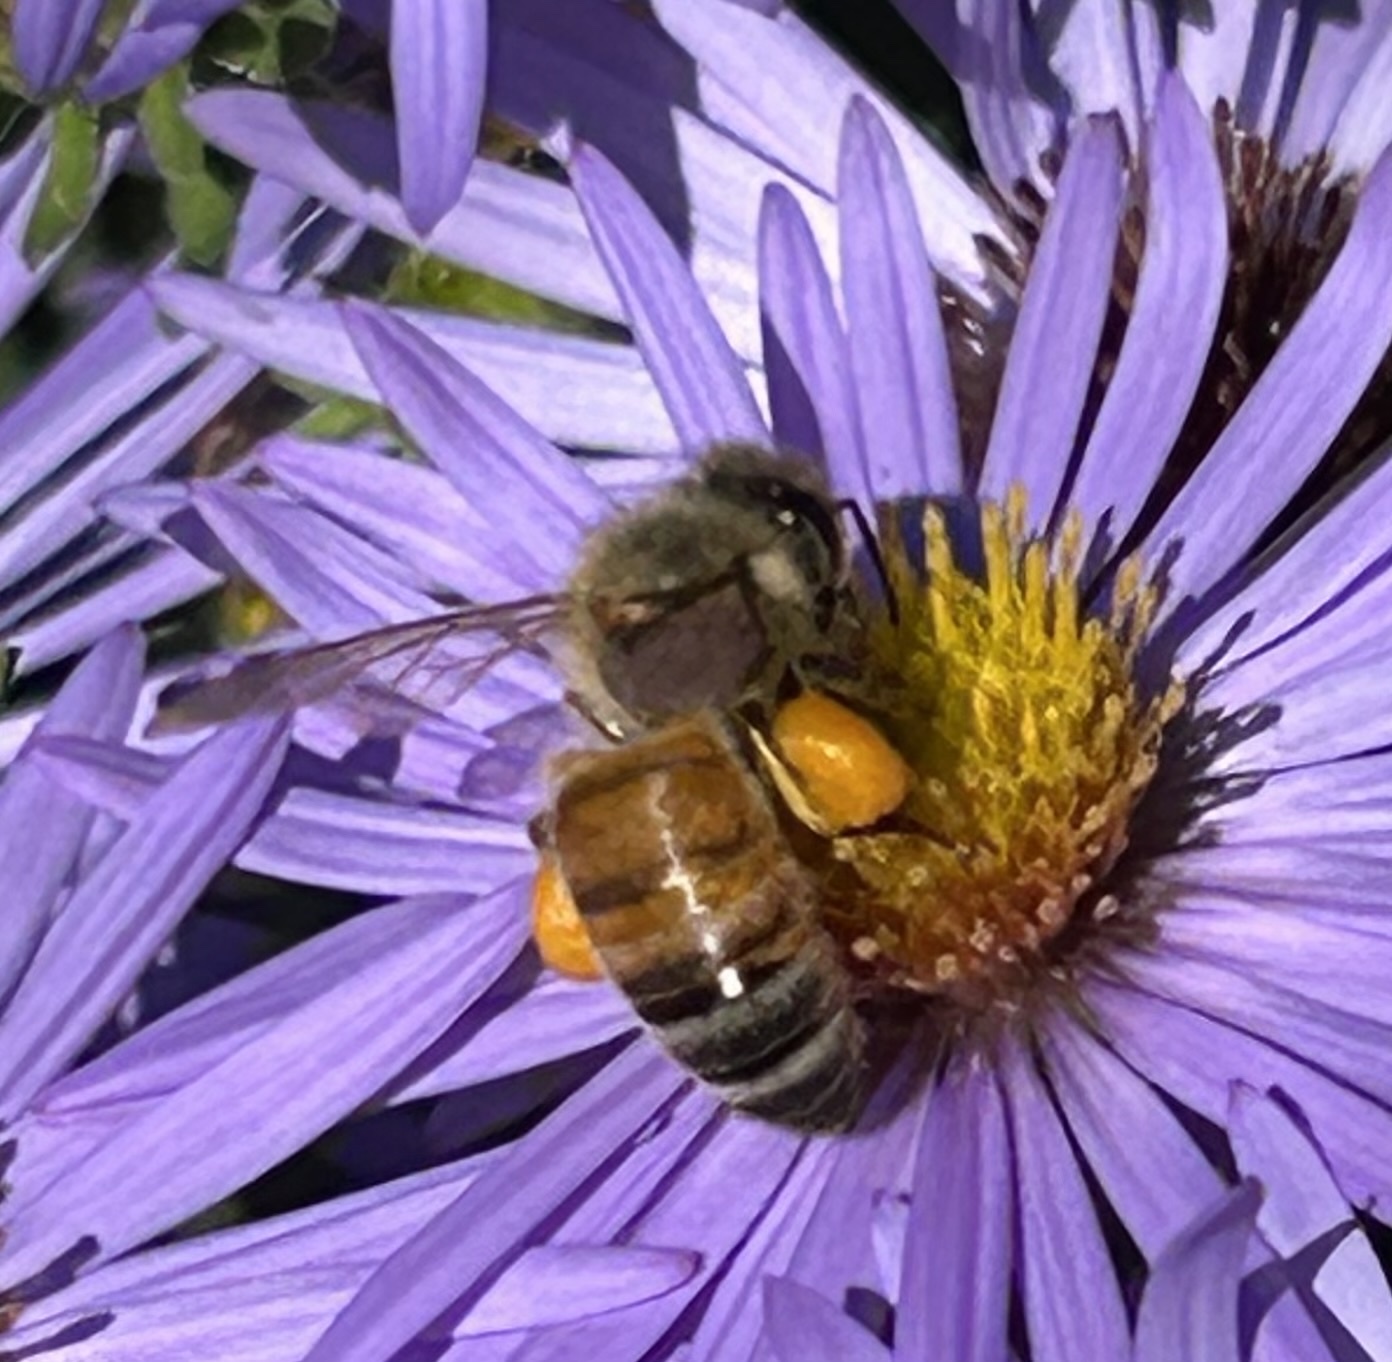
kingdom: Animalia
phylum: Arthropoda
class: Insecta
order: Hymenoptera
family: Apidae
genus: Apis
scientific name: Apis mellifera
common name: Honey bee
